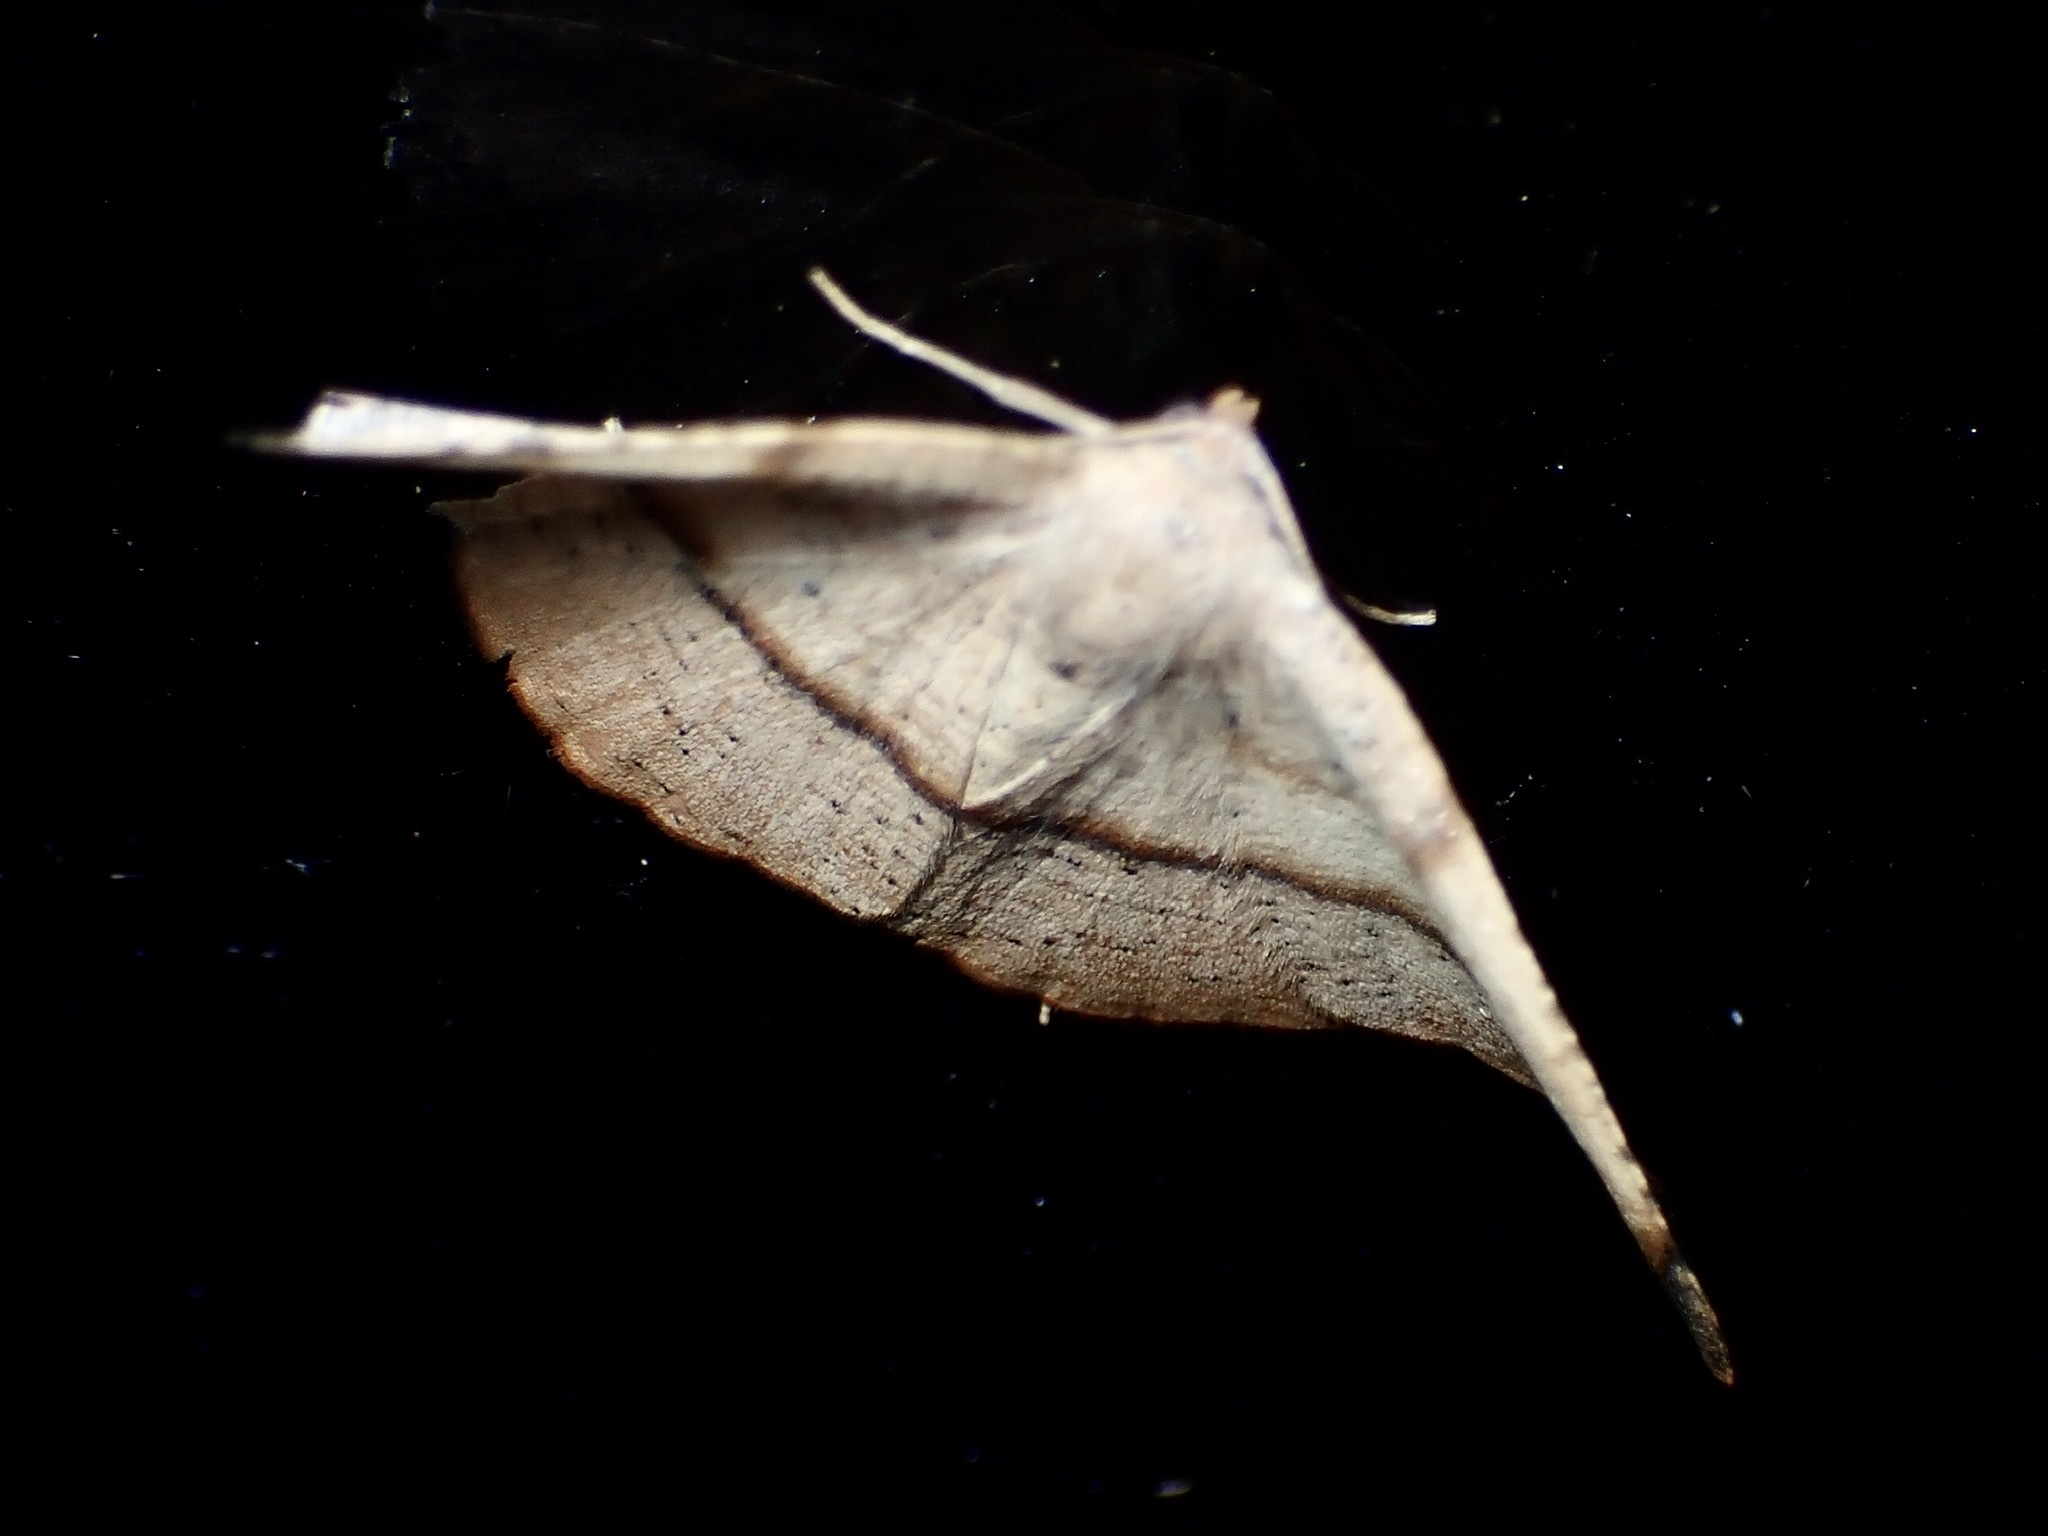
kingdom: Animalia
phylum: Arthropoda
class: Insecta
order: Lepidoptera
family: Geometridae
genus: Patalene
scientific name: Patalene olyzonaria
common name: Juniper geometer moth
